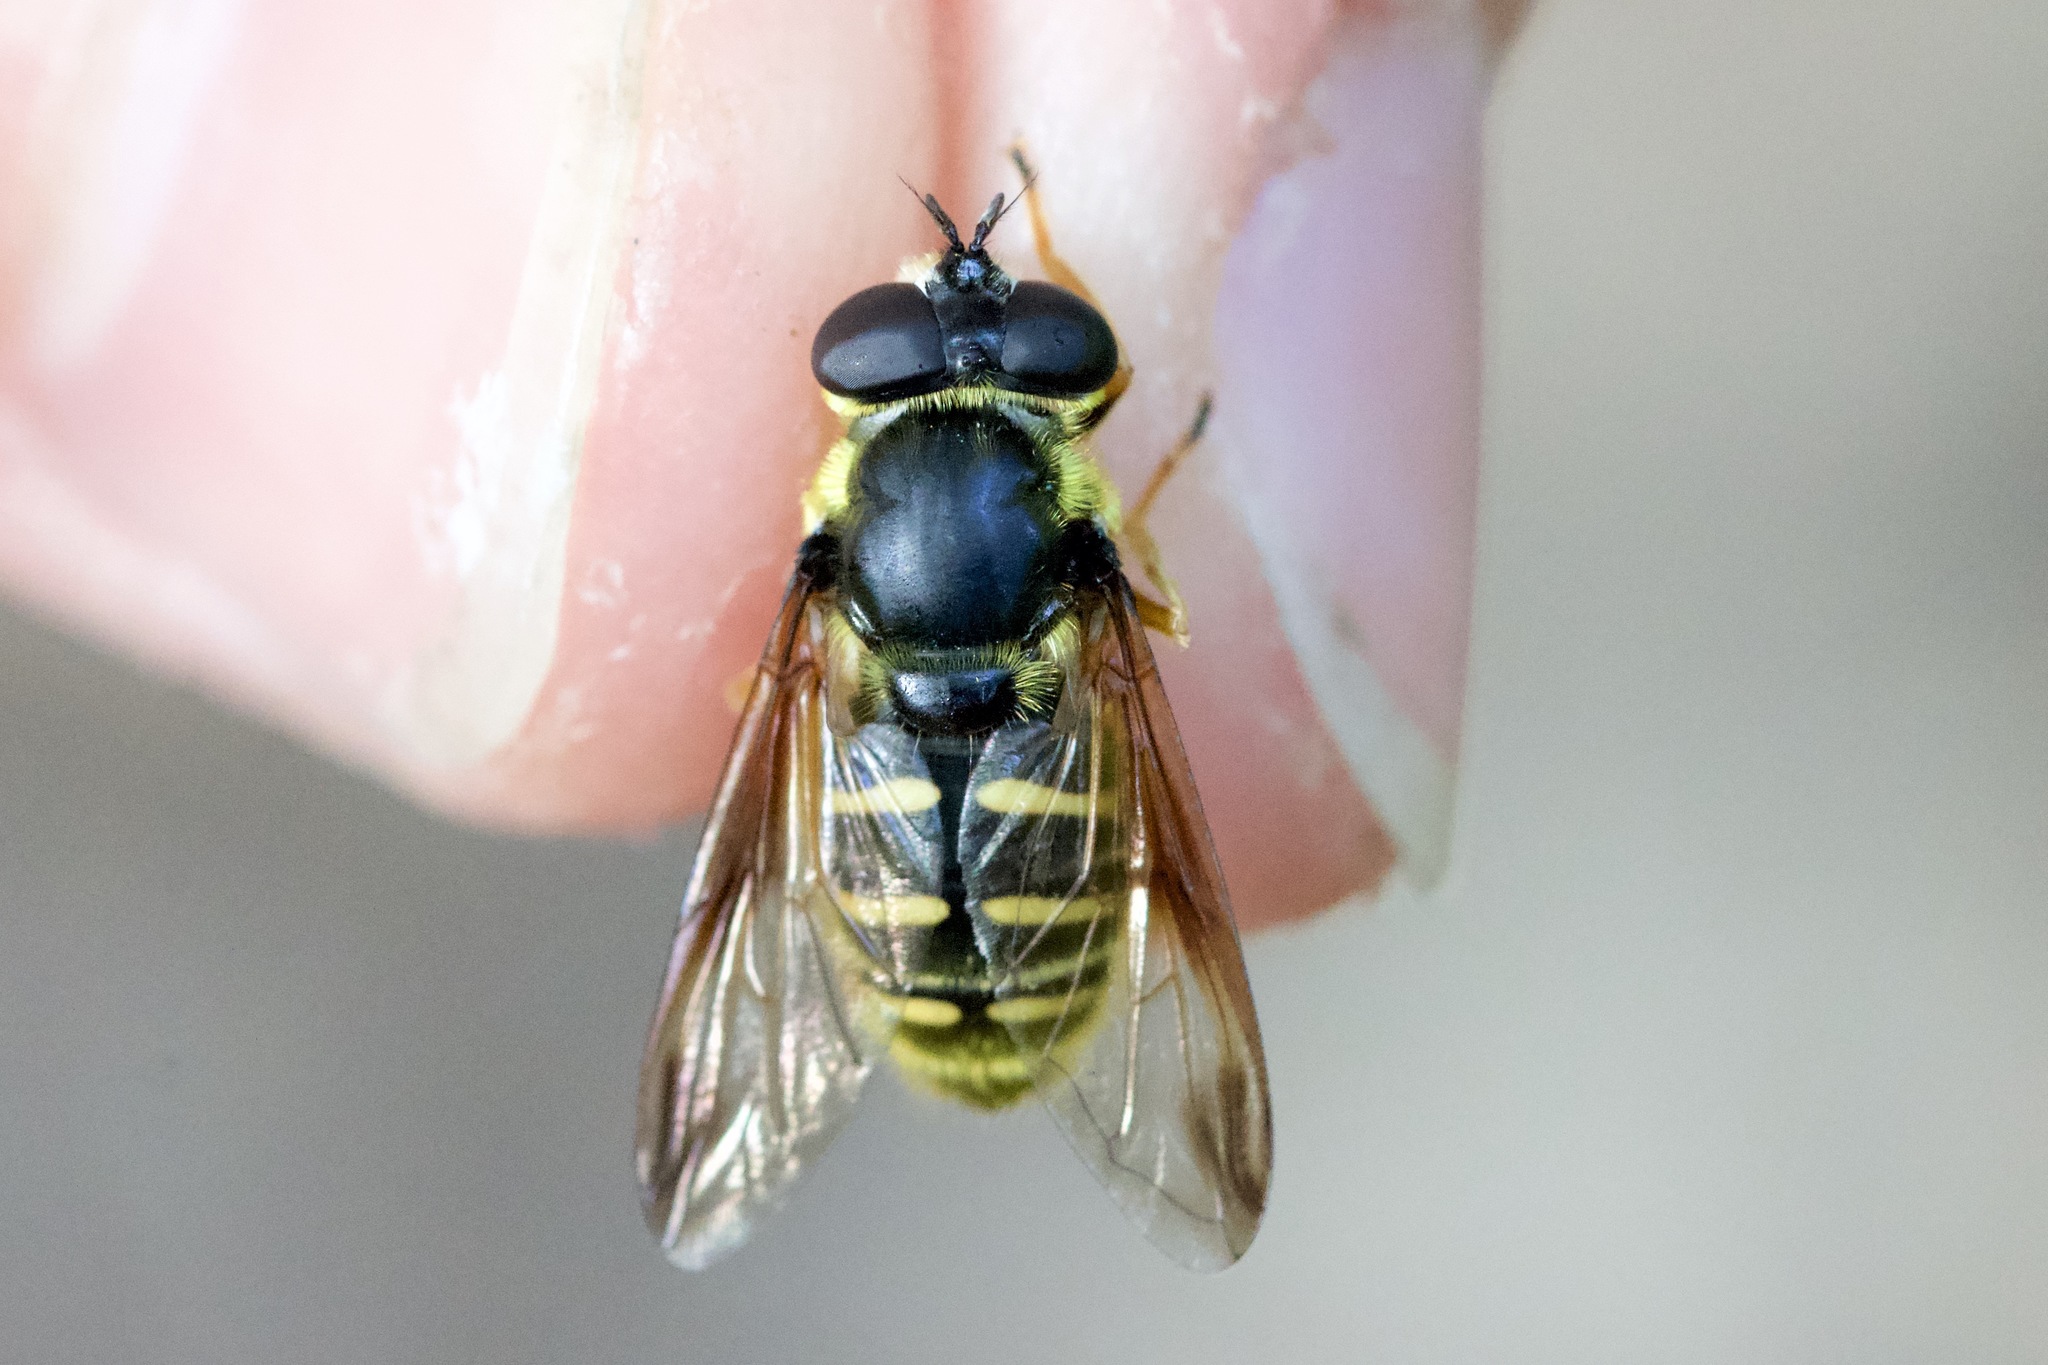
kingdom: Animalia
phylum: Arthropoda
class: Insecta
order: Diptera
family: Syrphidae
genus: Sericomyia
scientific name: Sericomyia chrysotoxoides
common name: Oblique-banded pond fly
